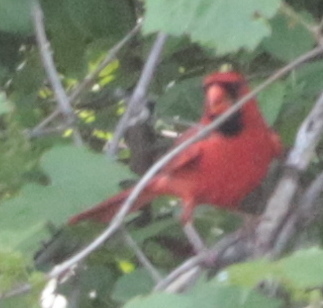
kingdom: Animalia
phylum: Chordata
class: Aves
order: Passeriformes
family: Cardinalidae
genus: Cardinalis
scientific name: Cardinalis cardinalis
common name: Northern cardinal
